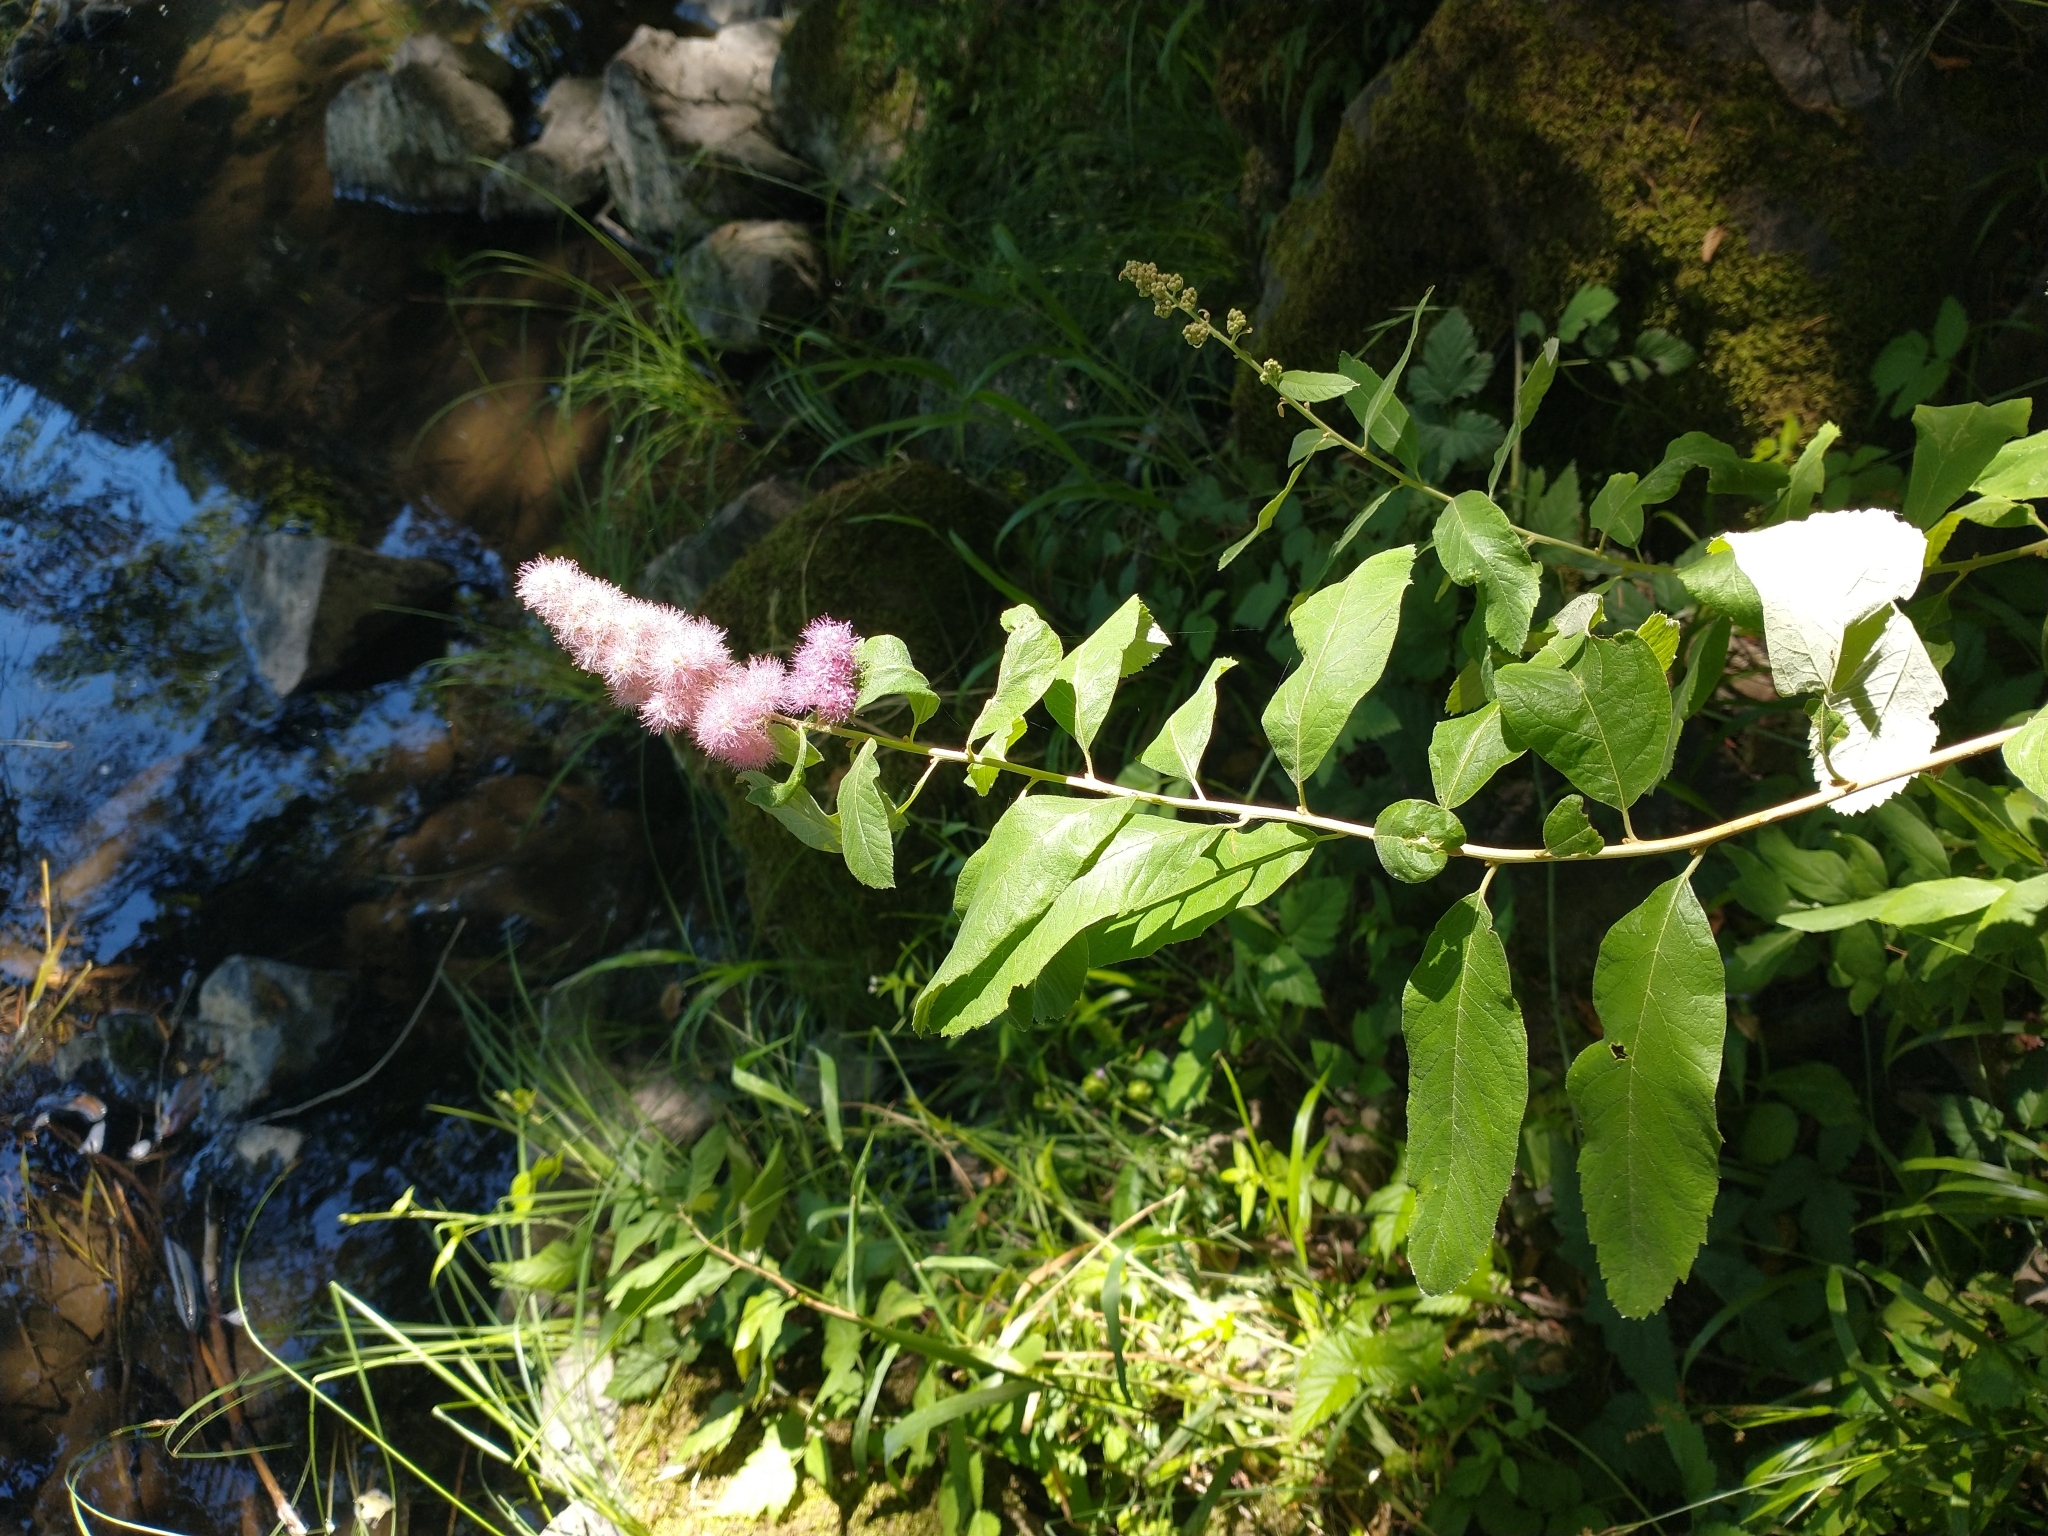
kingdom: Plantae
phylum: Tracheophyta
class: Magnoliopsida
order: Rosales
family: Rosaceae
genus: Spiraea
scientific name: Spiraea douglasii
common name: Steeplebush
